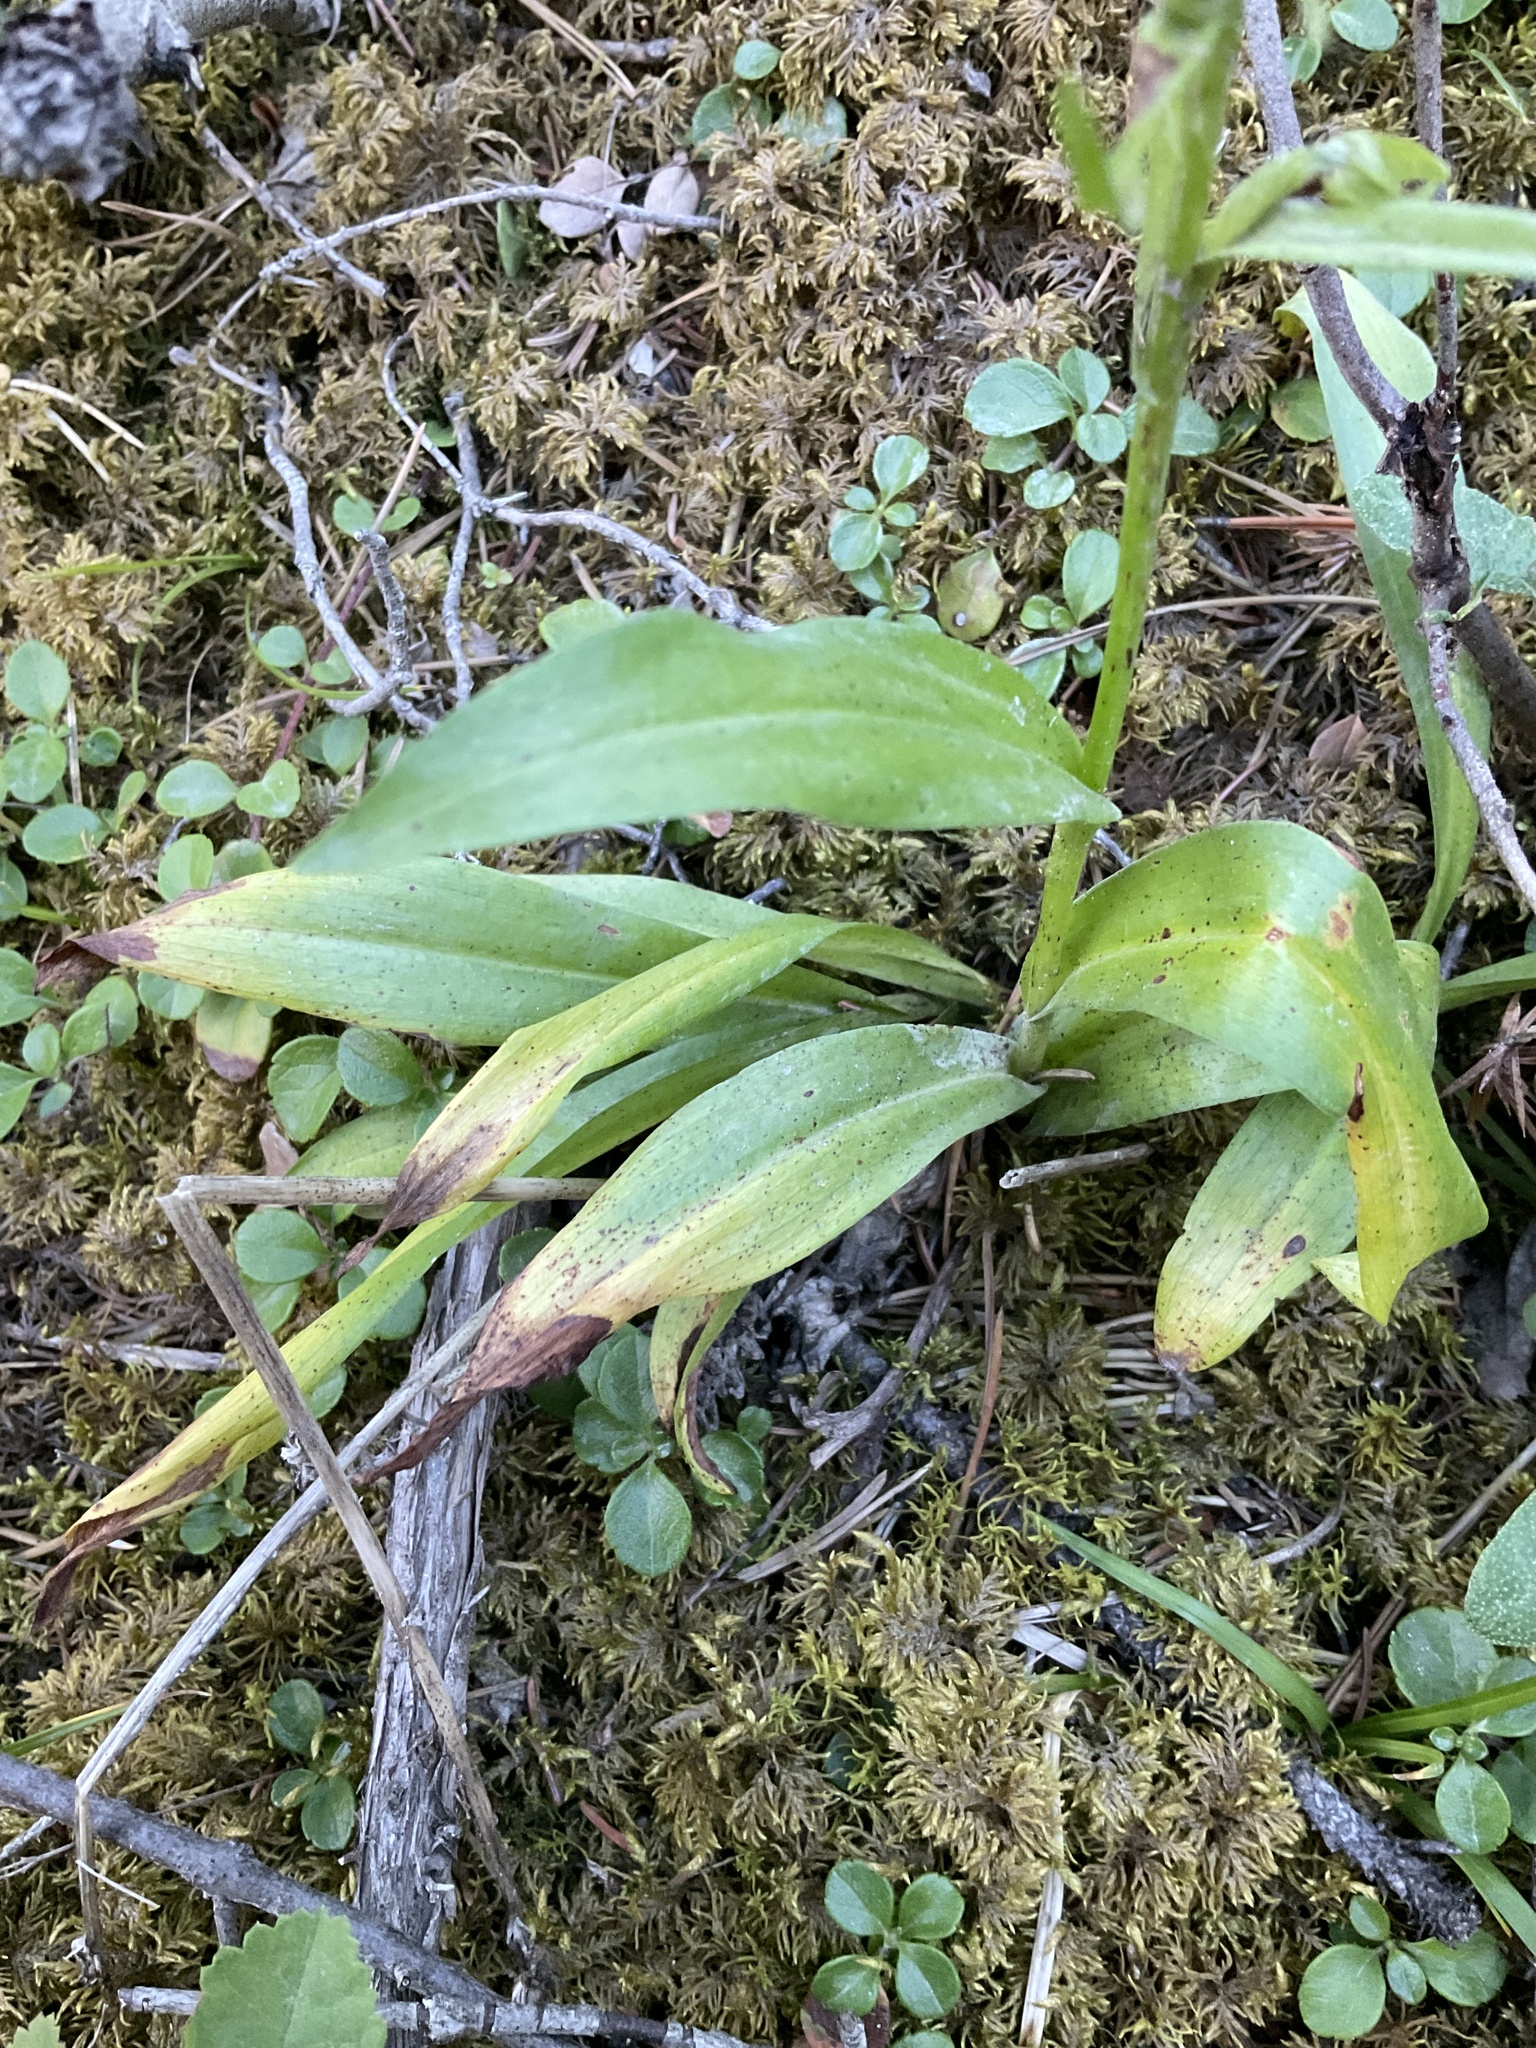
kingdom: Plantae
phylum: Tracheophyta
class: Liliopsida
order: Asparagales
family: Orchidaceae
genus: Dactylorhiza
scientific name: Dactylorhiza viridis
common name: Longbract frog orchid
